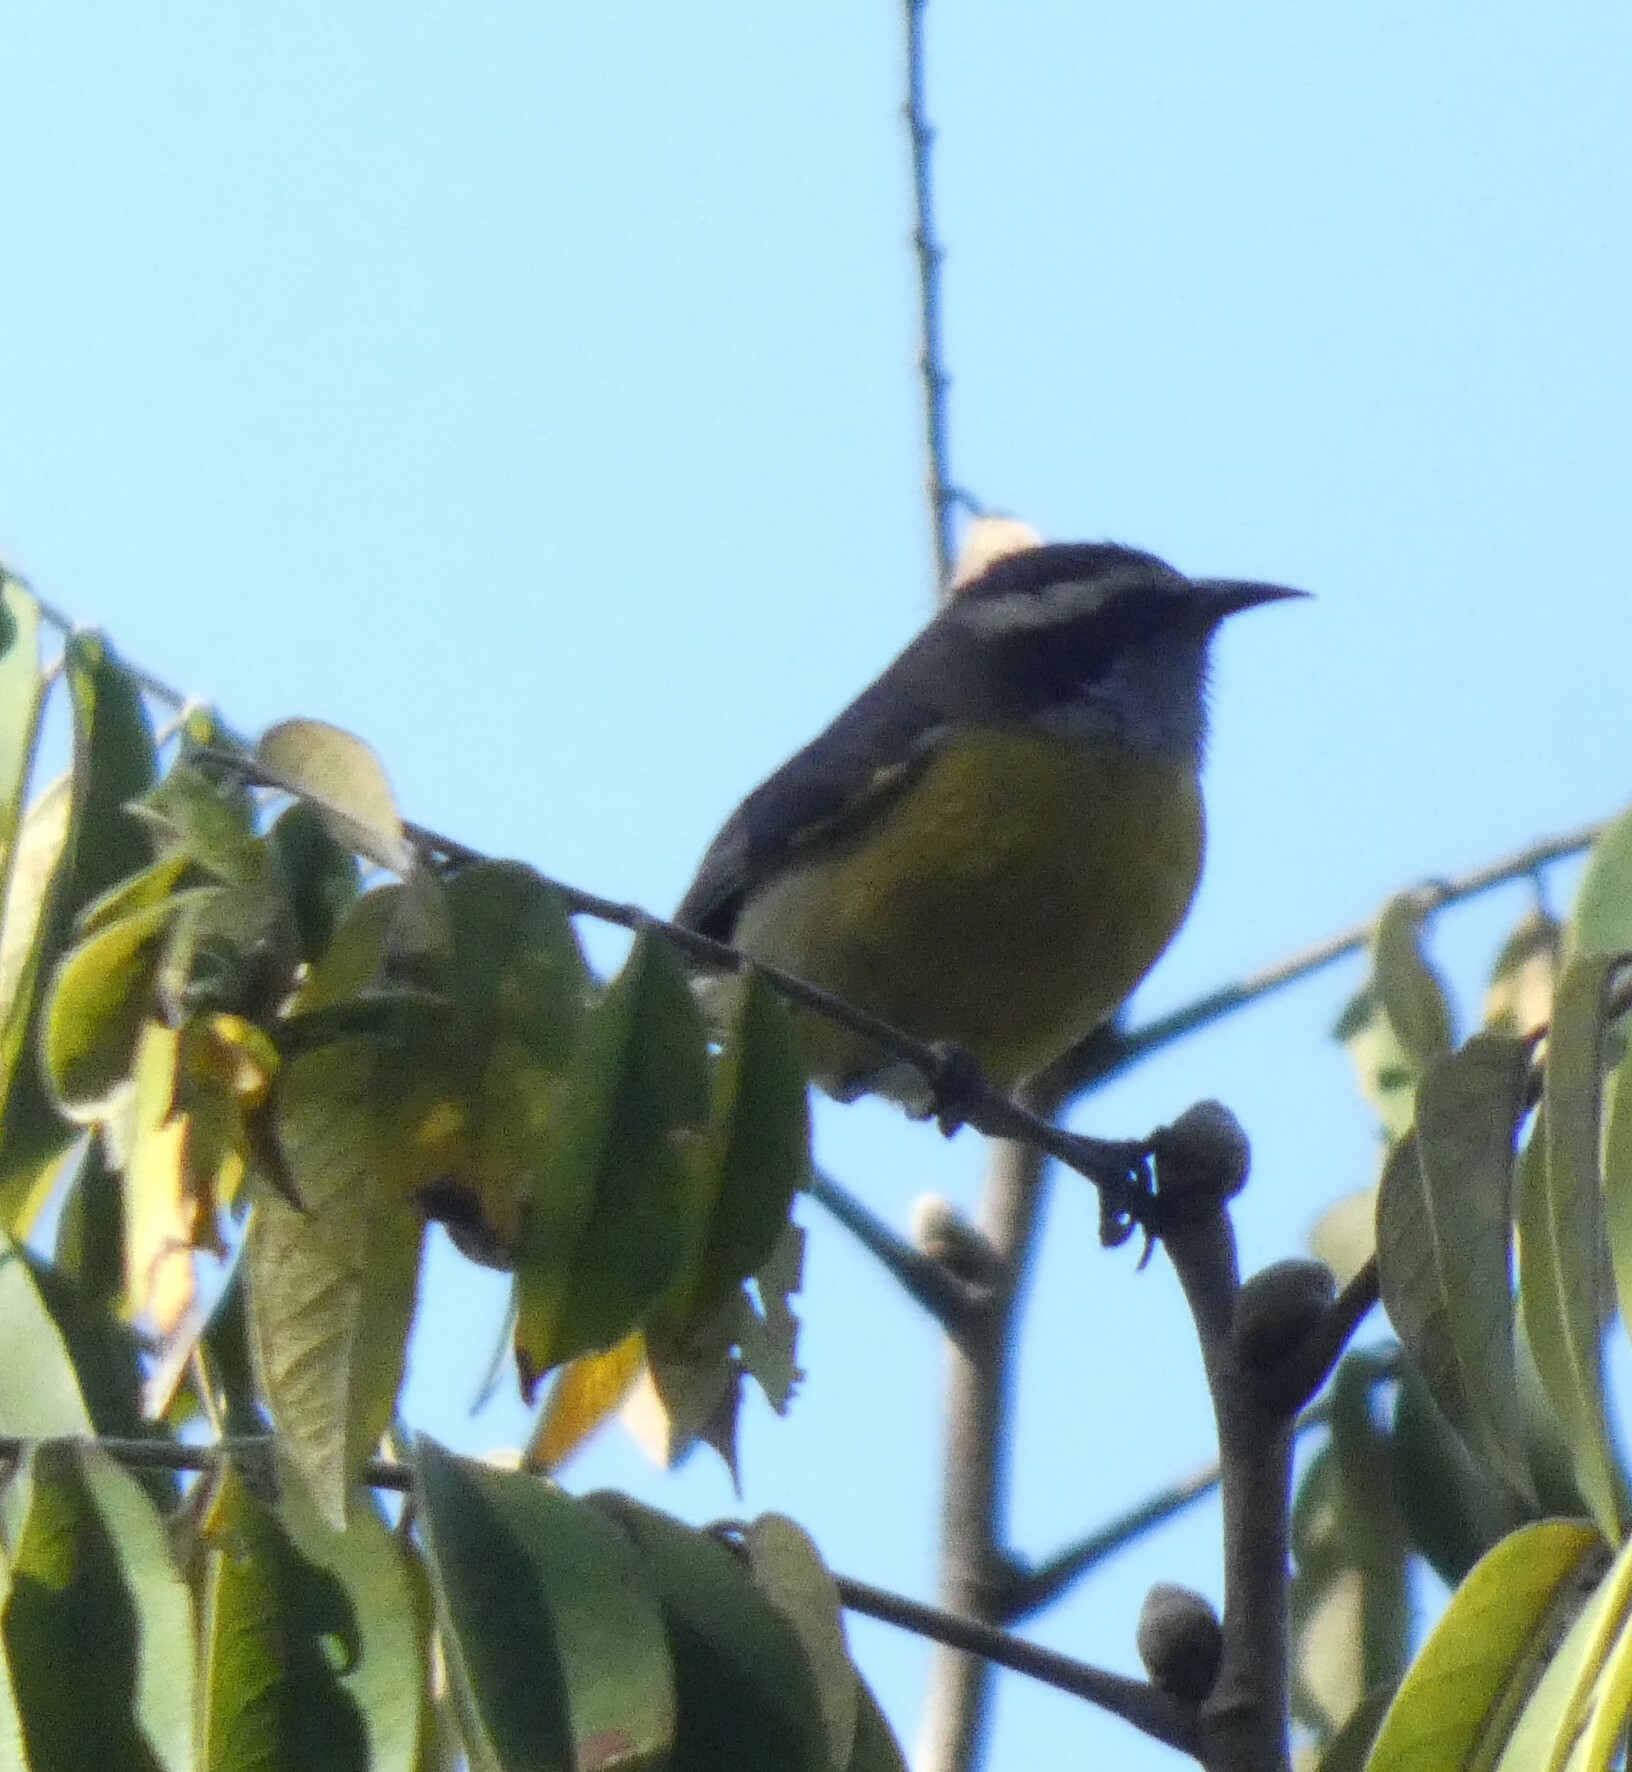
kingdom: Animalia
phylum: Chordata
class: Aves
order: Passeriformes
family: Thraupidae
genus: Coereba
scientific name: Coereba flaveola
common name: Bananaquit
